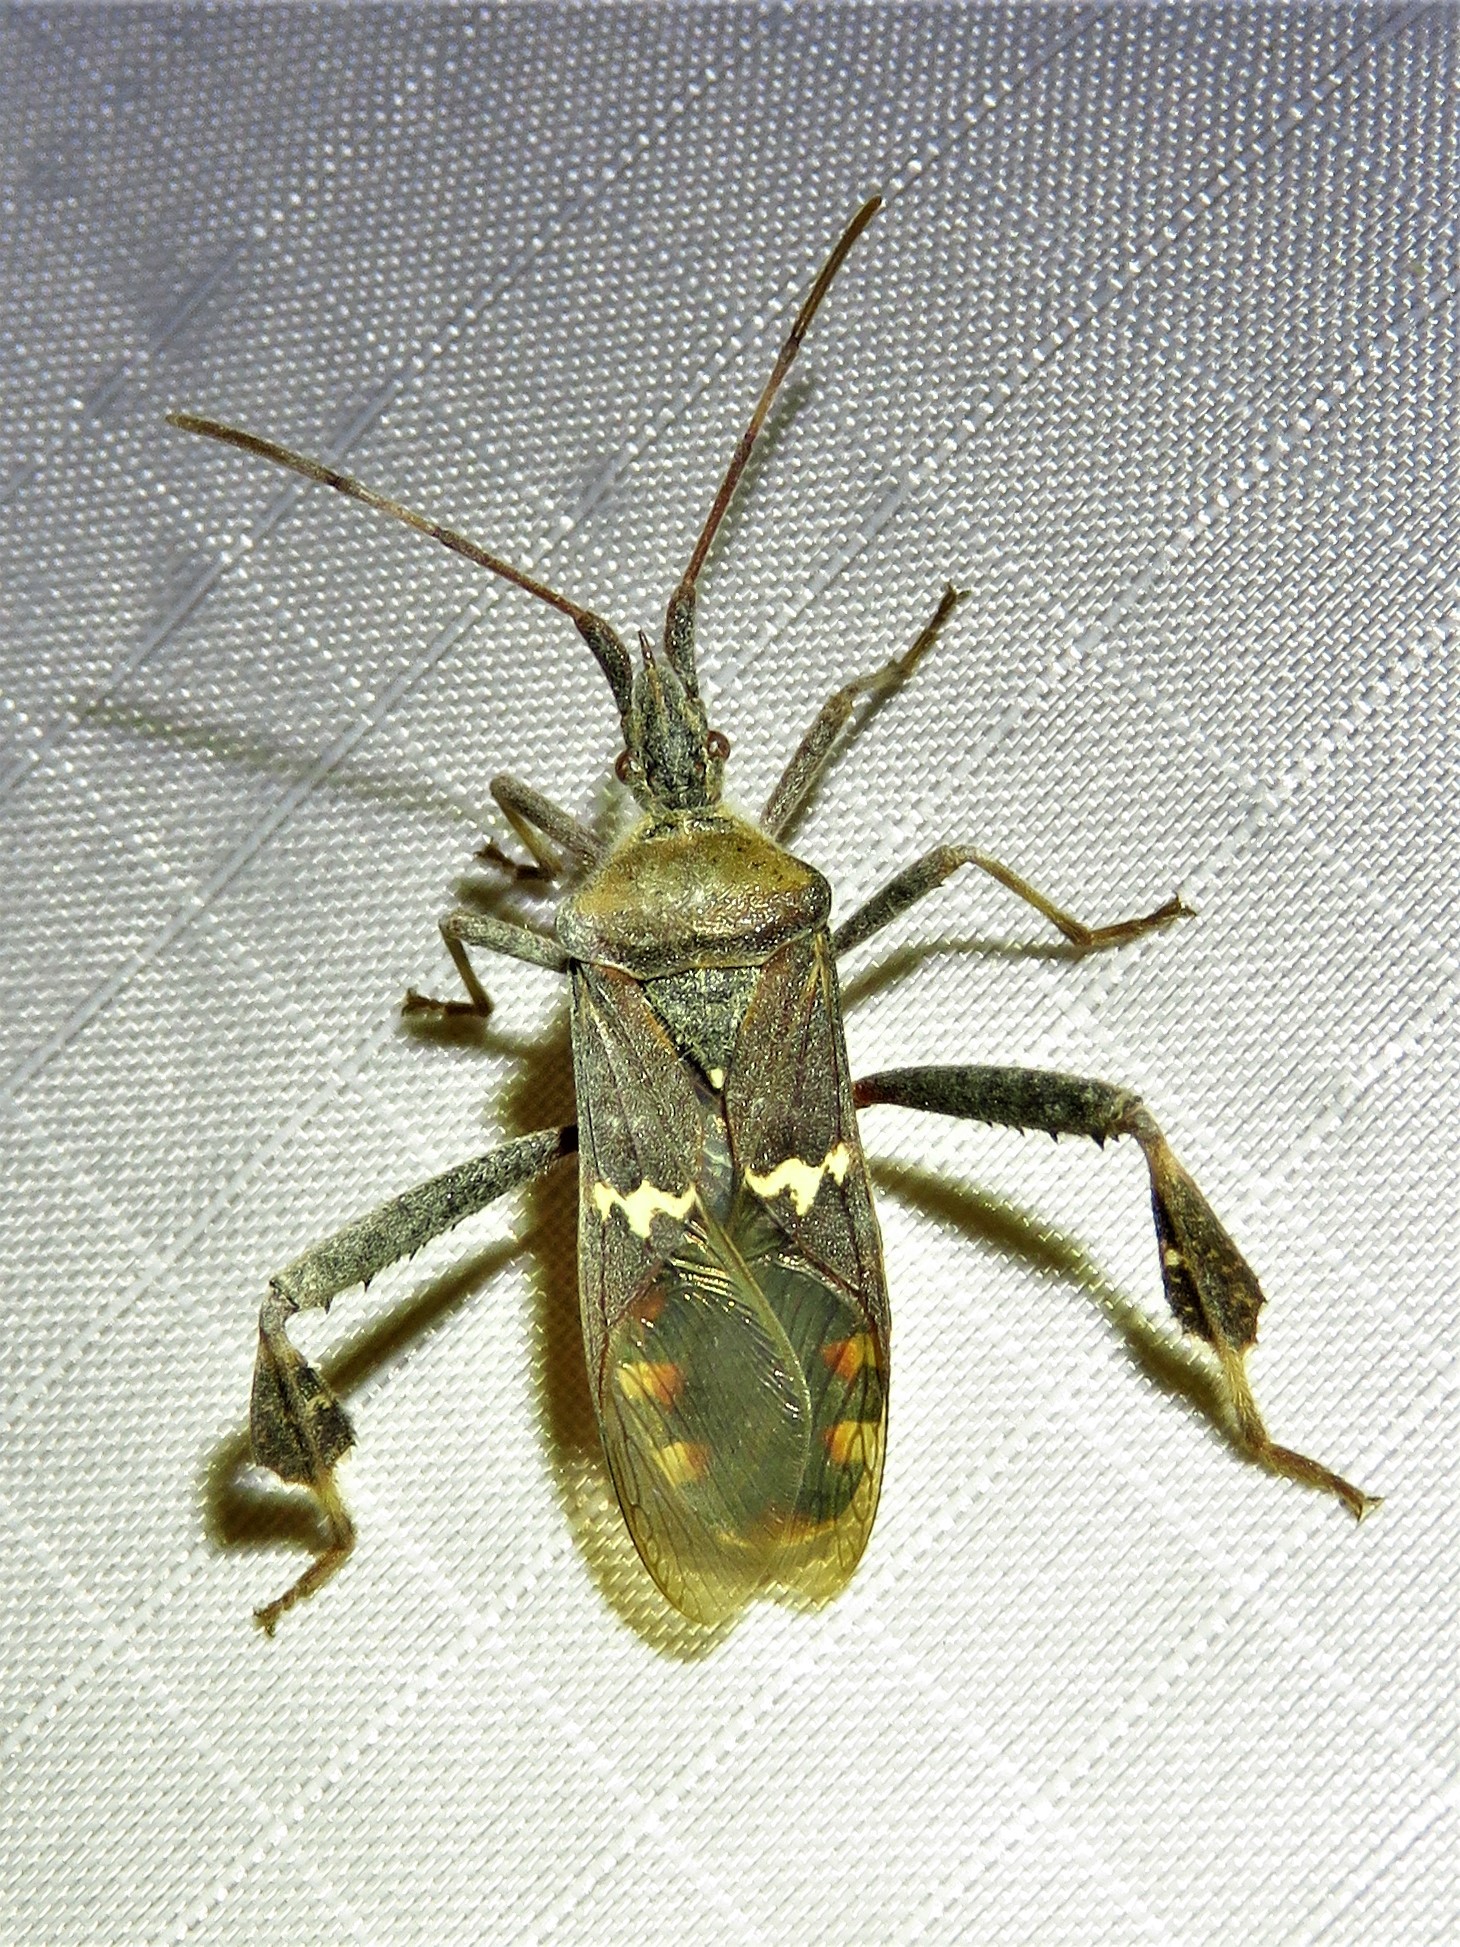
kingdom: Animalia
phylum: Arthropoda
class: Insecta
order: Hemiptera
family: Coreidae
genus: Leptoglossus
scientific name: Leptoglossus clypealis
